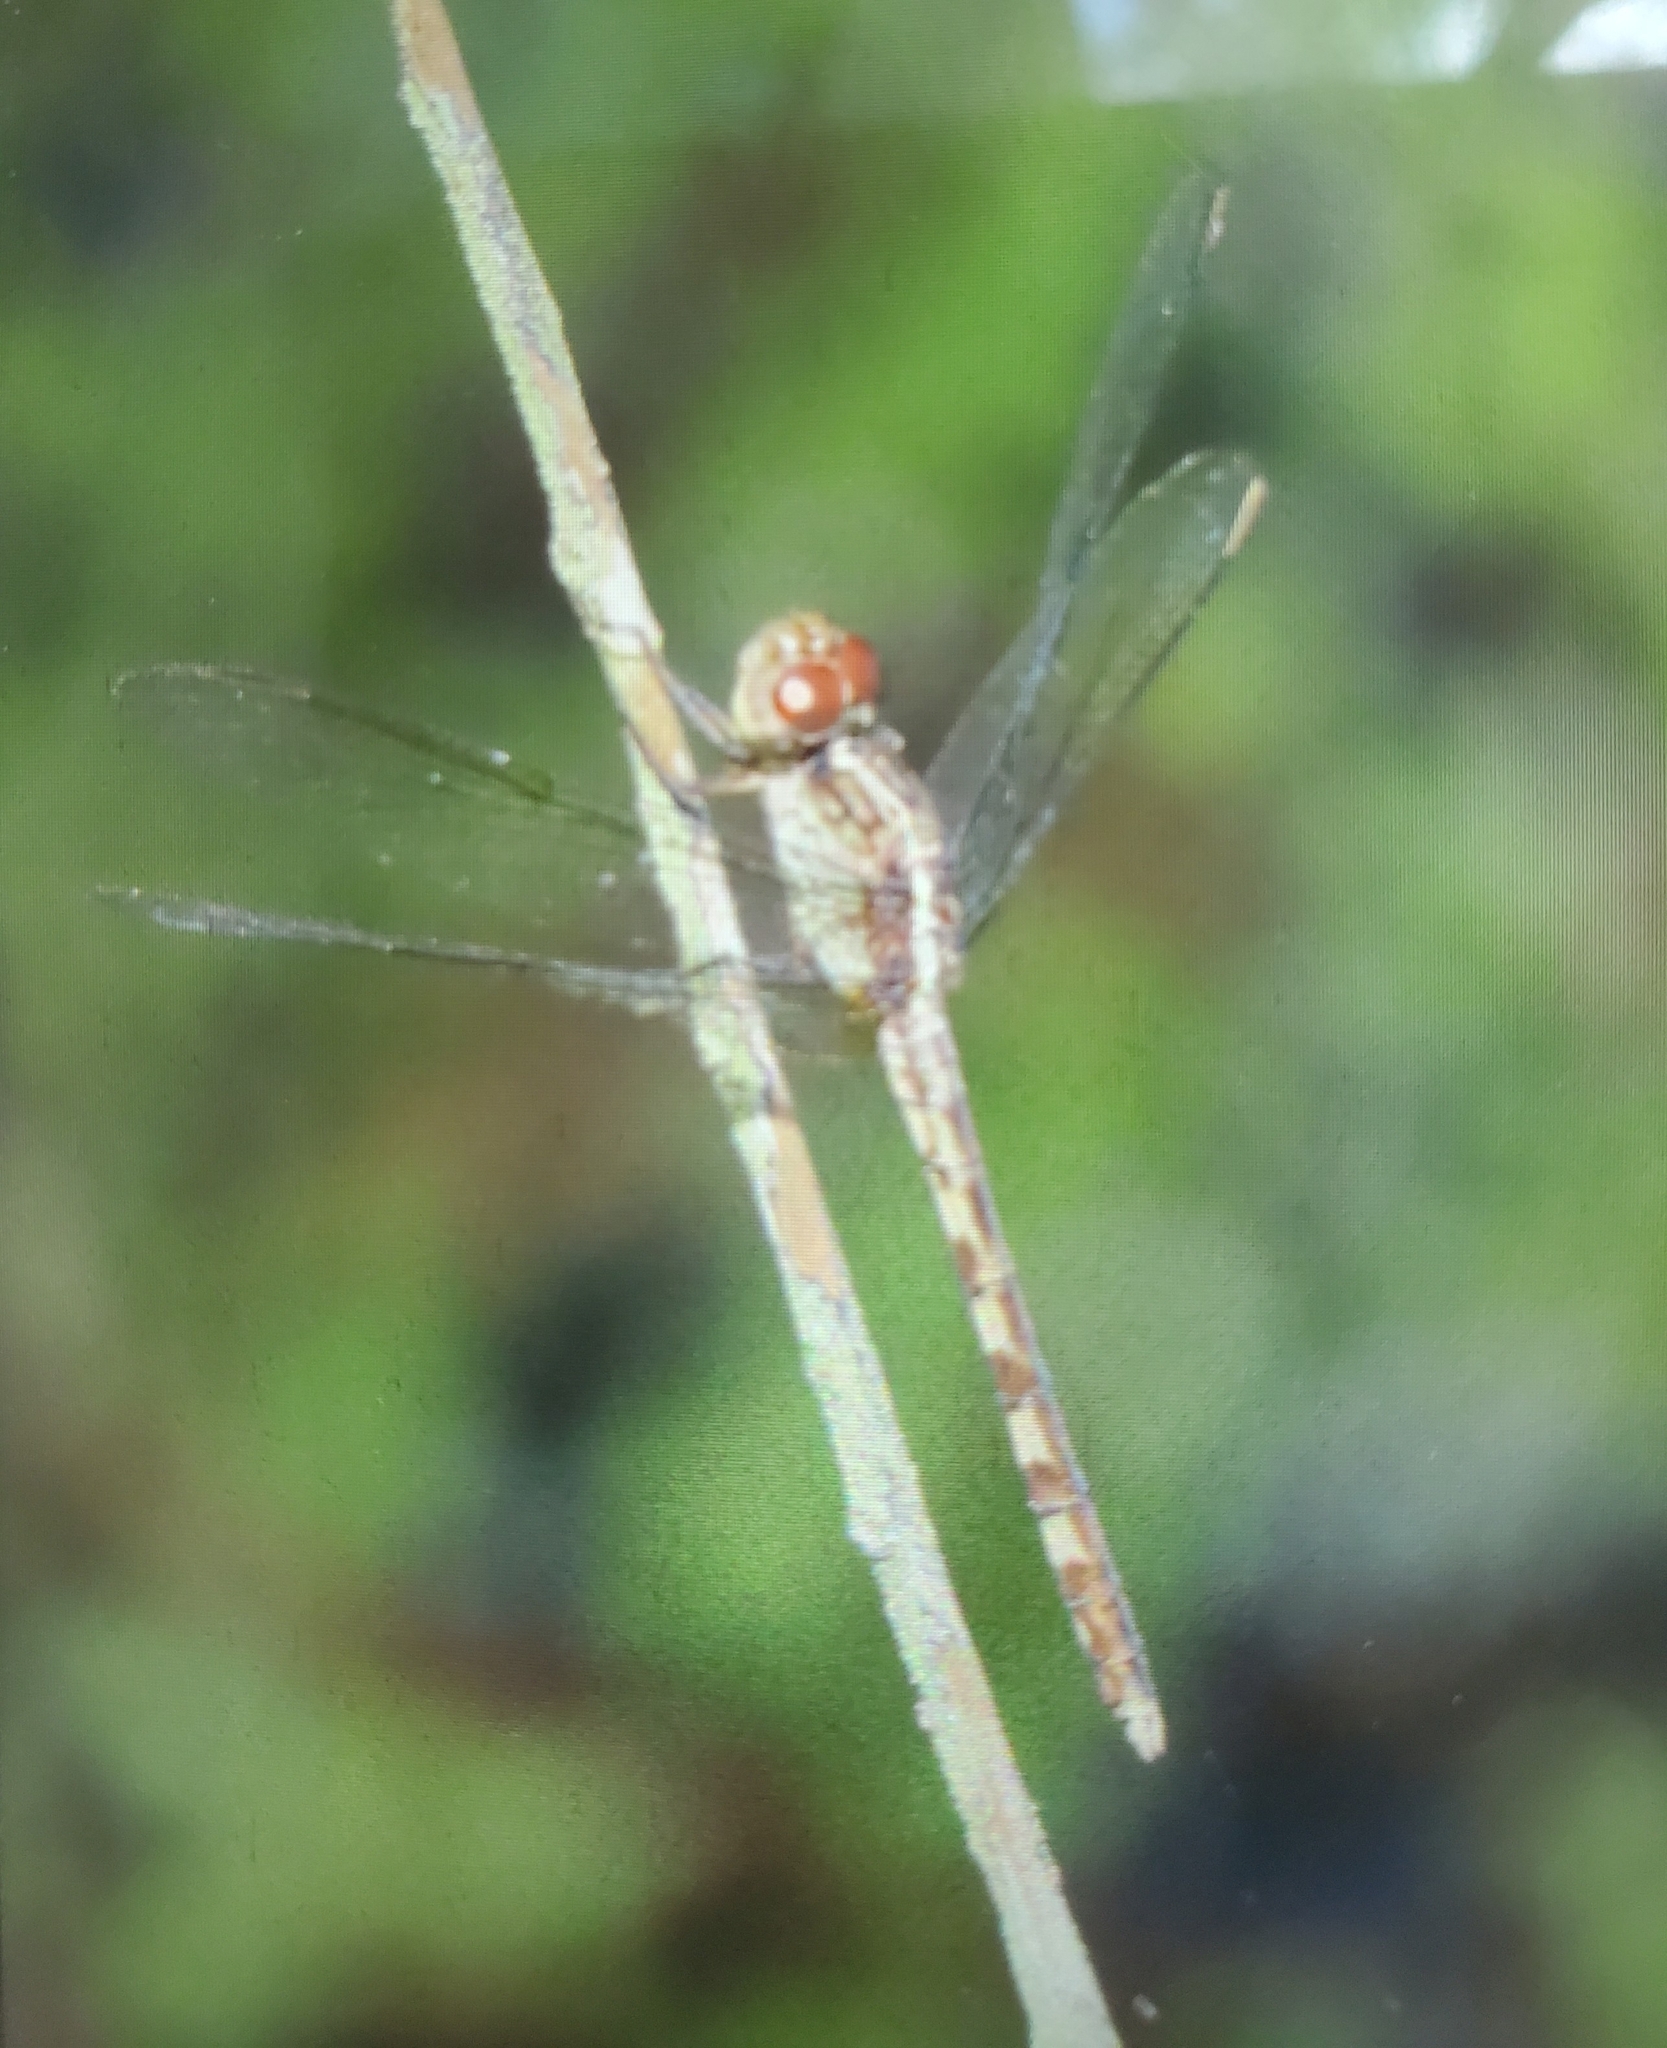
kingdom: Animalia
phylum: Arthropoda
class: Insecta
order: Odonata
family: Libellulidae
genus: Erythrodiplax
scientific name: Erythrodiplax umbrata
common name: Band-winged dragonlet
